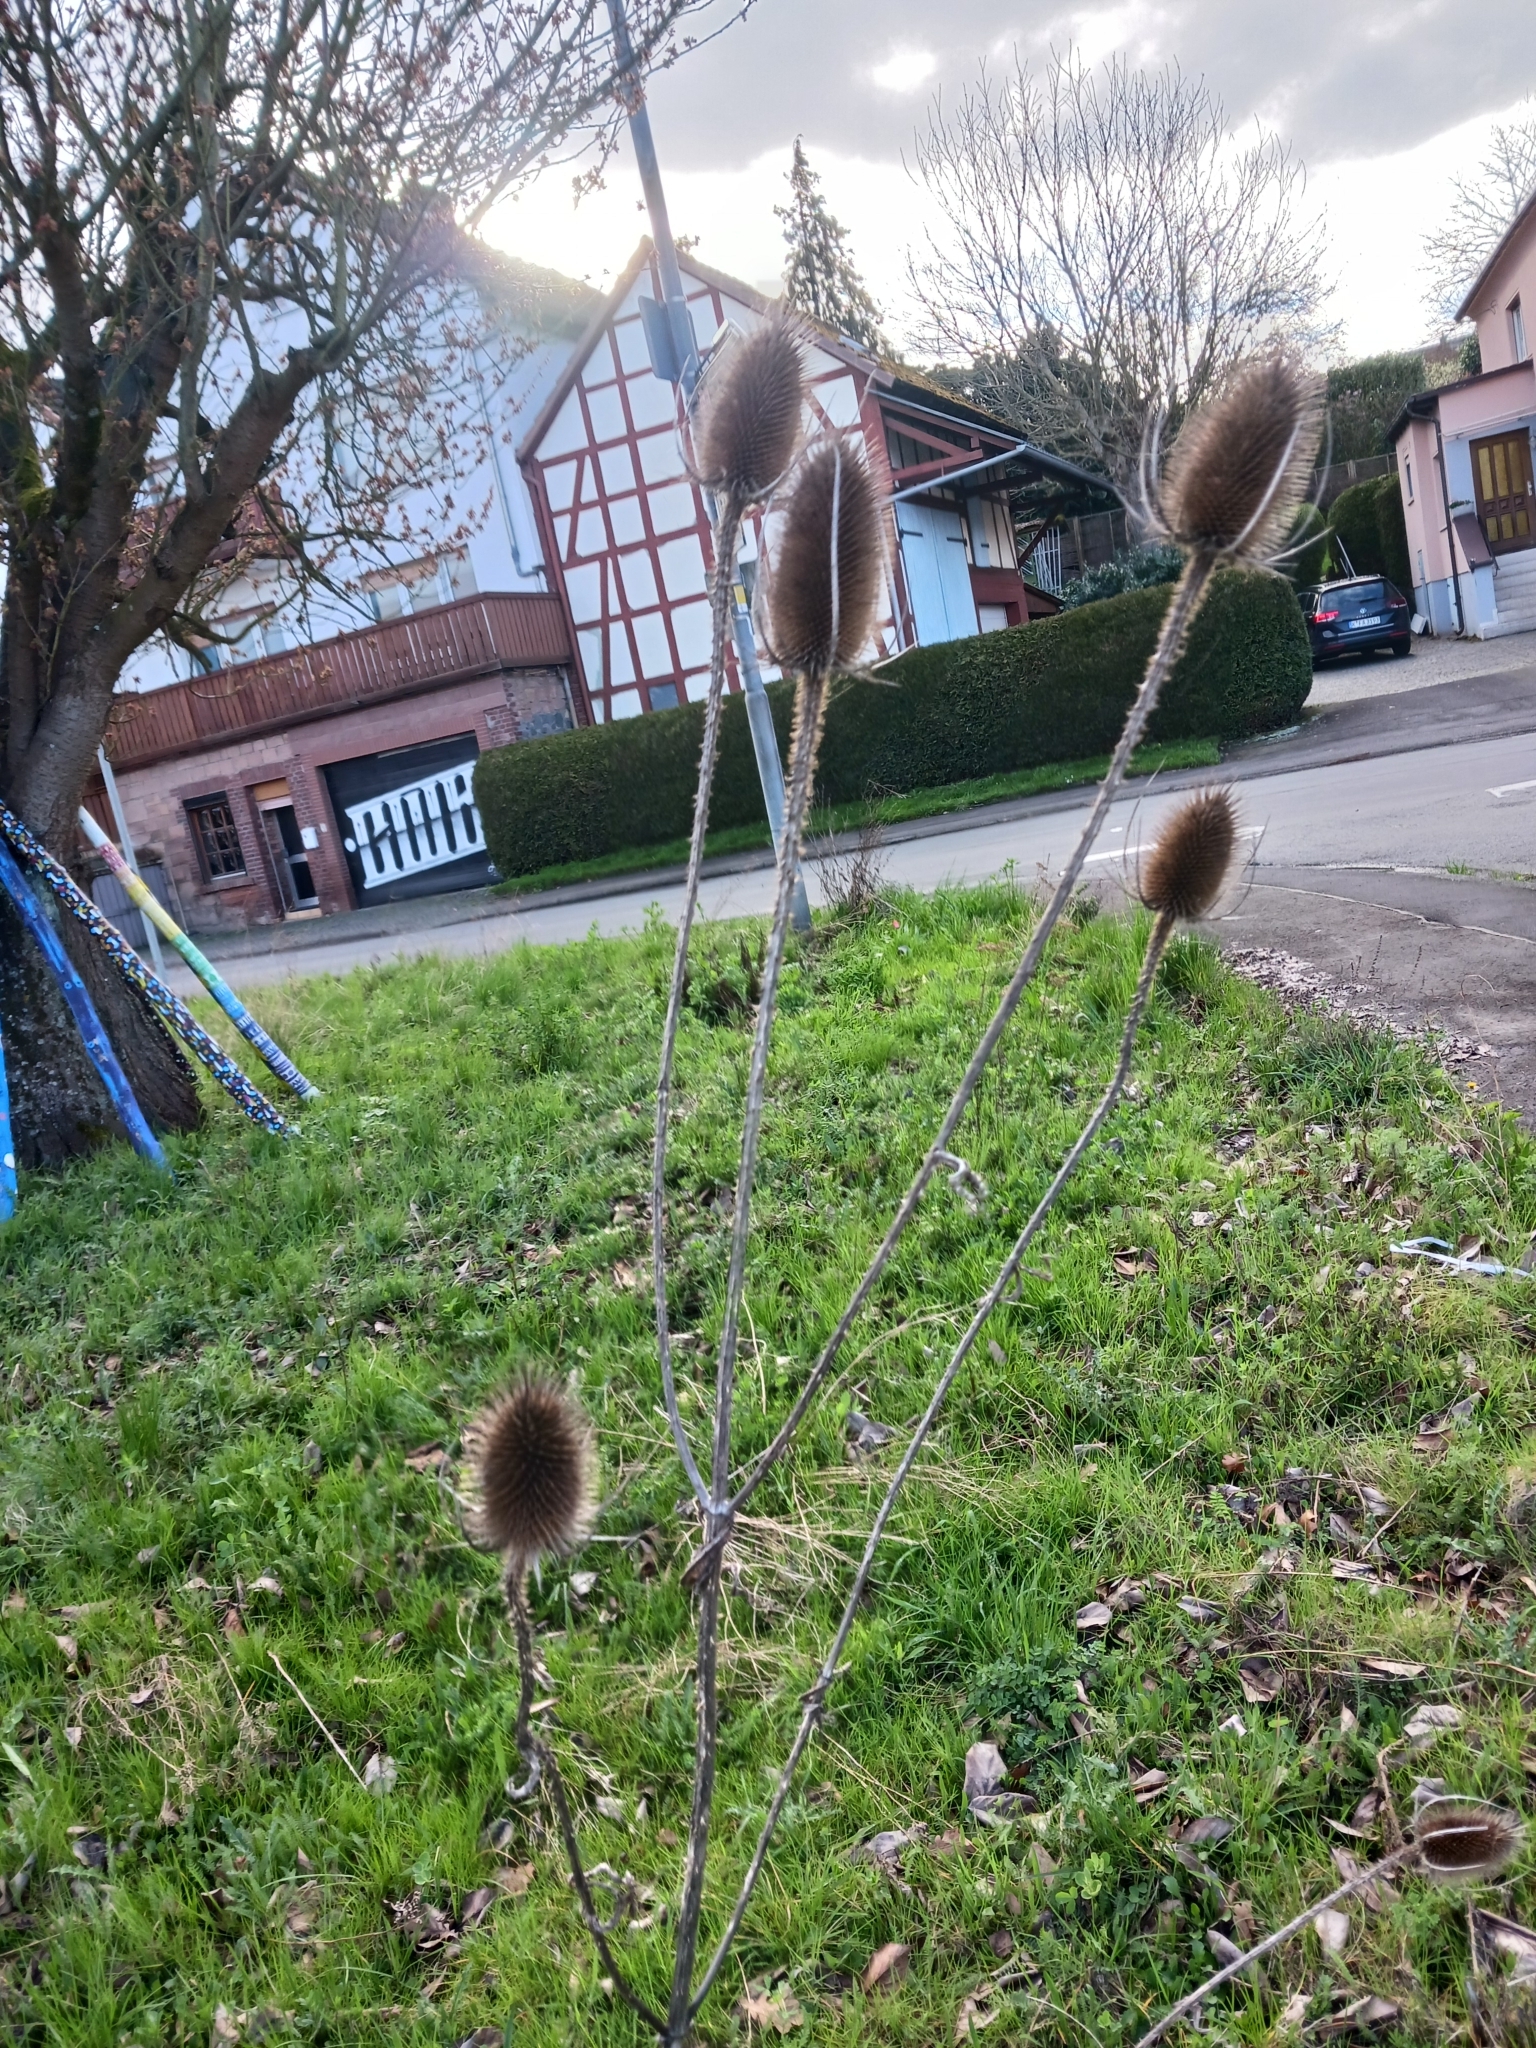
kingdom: Plantae
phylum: Tracheophyta
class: Magnoliopsida
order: Dipsacales
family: Caprifoliaceae
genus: Dipsacus
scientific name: Dipsacus fullonum
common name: Teasel
